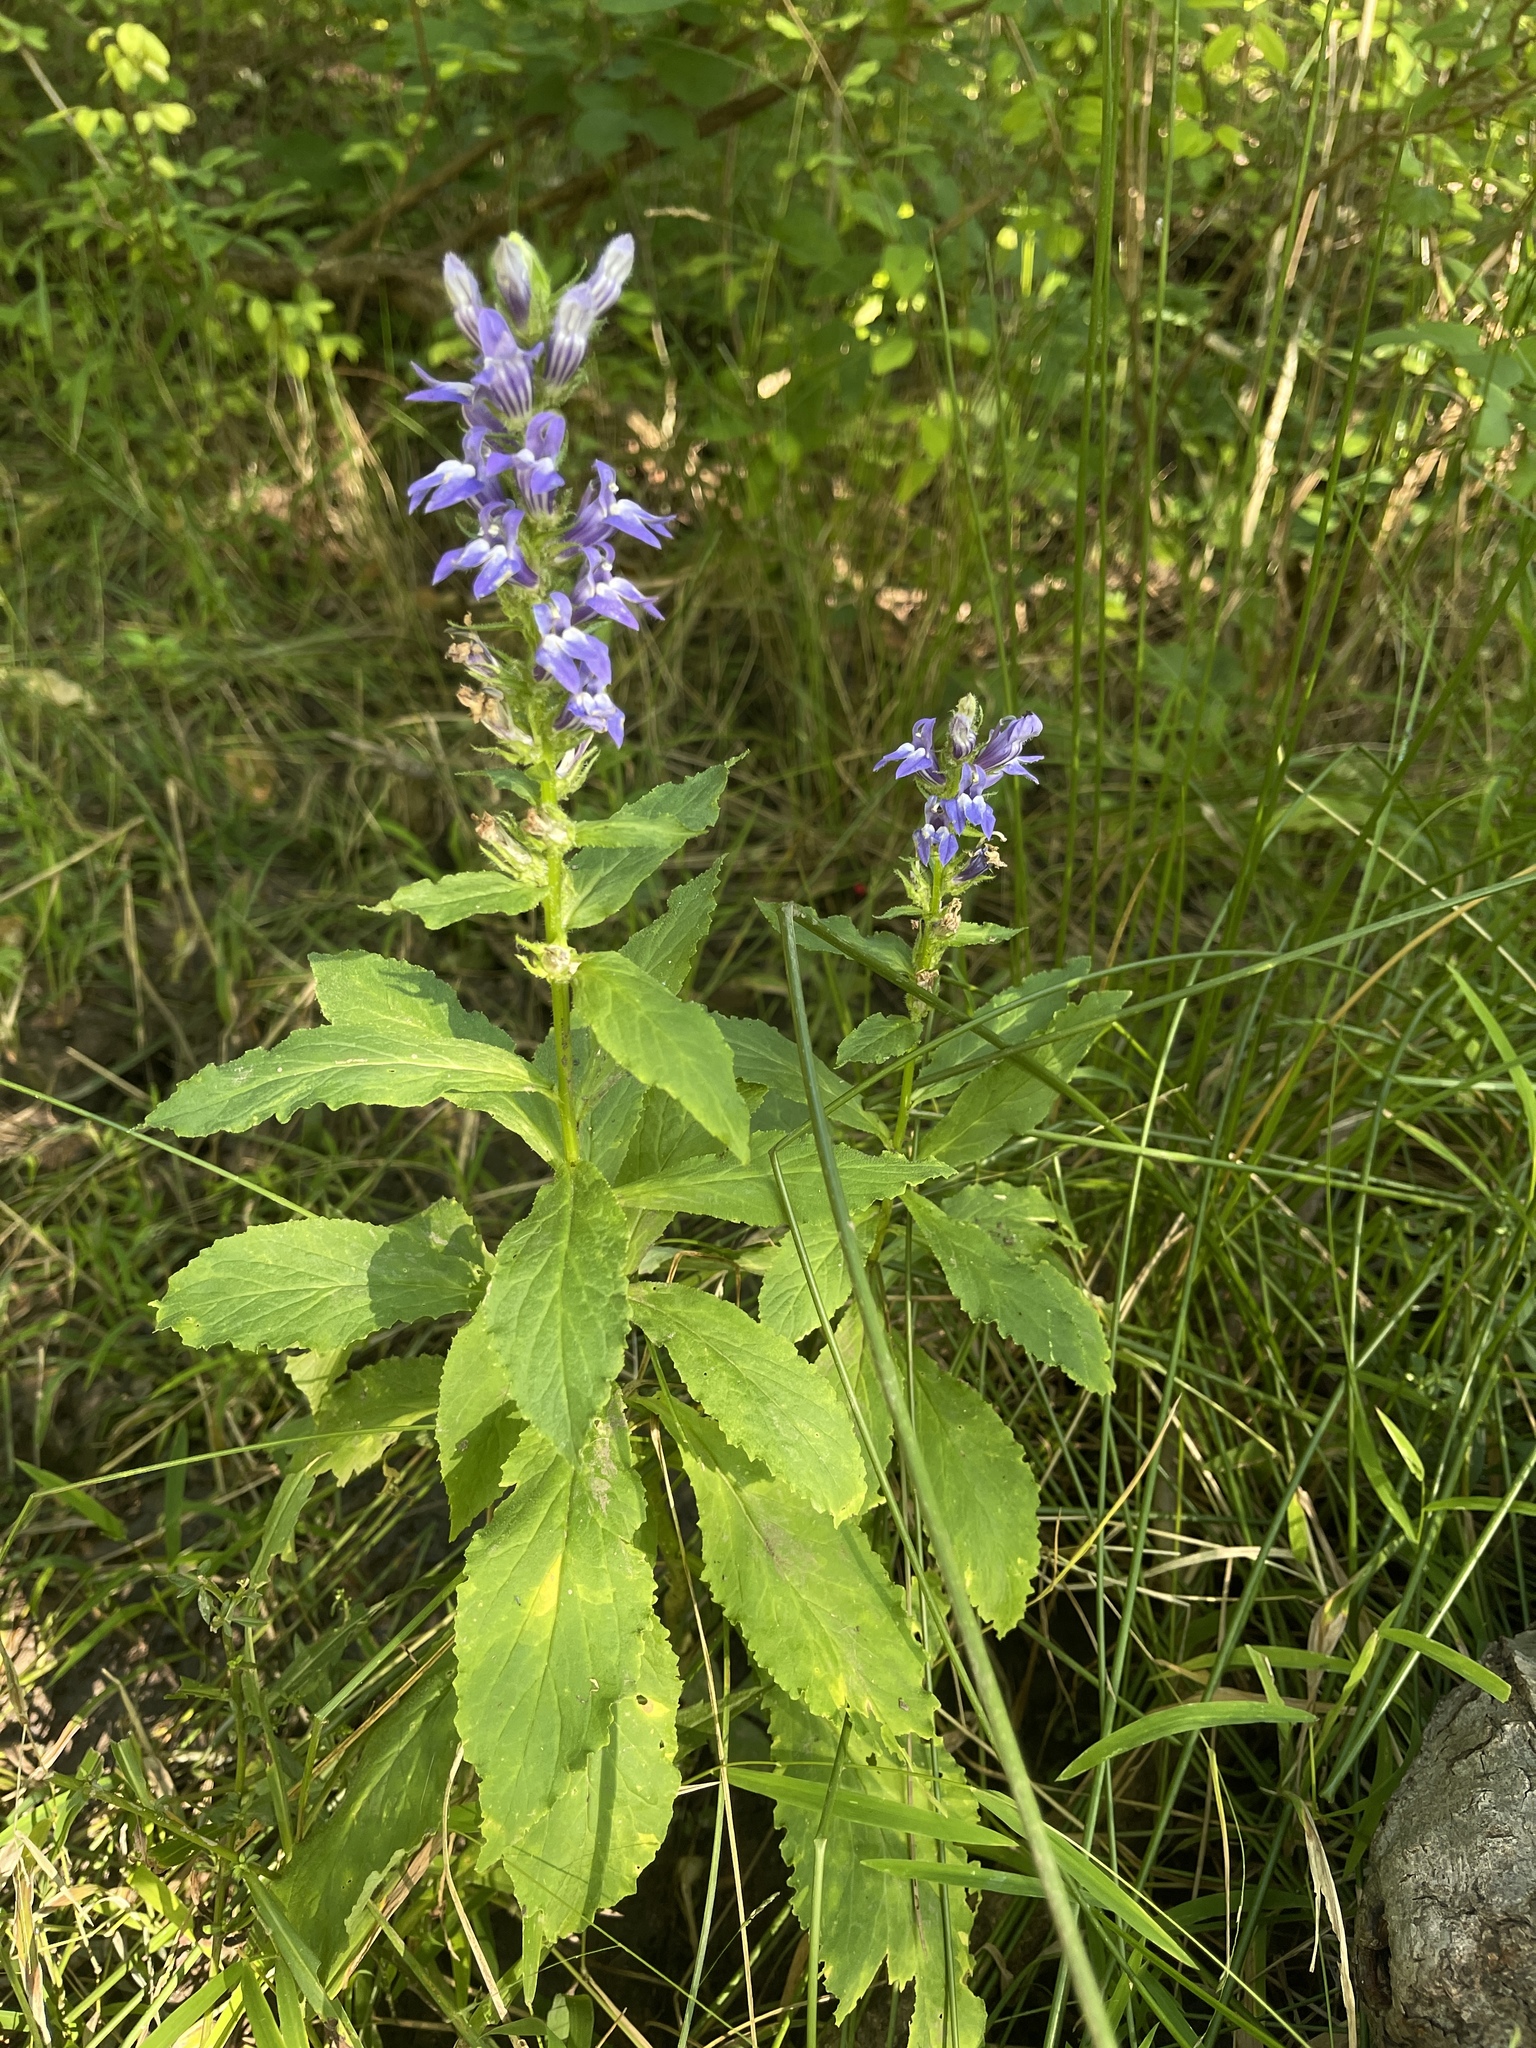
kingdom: Plantae
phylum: Tracheophyta
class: Magnoliopsida
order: Asterales
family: Campanulaceae
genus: Lobelia
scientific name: Lobelia siphilitica
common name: Great lobelia
